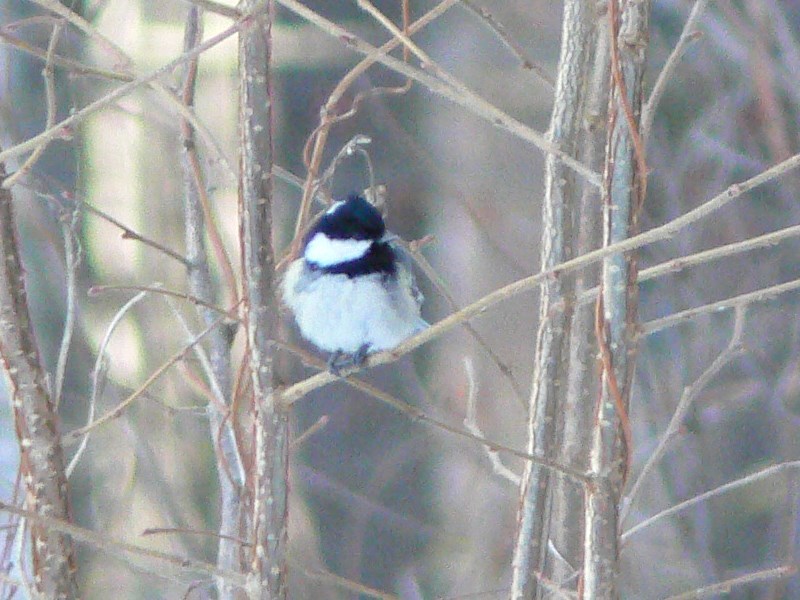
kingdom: Animalia
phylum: Chordata
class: Aves
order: Passeriformes
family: Paridae
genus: Periparus
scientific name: Periparus ater
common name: Coal tit
